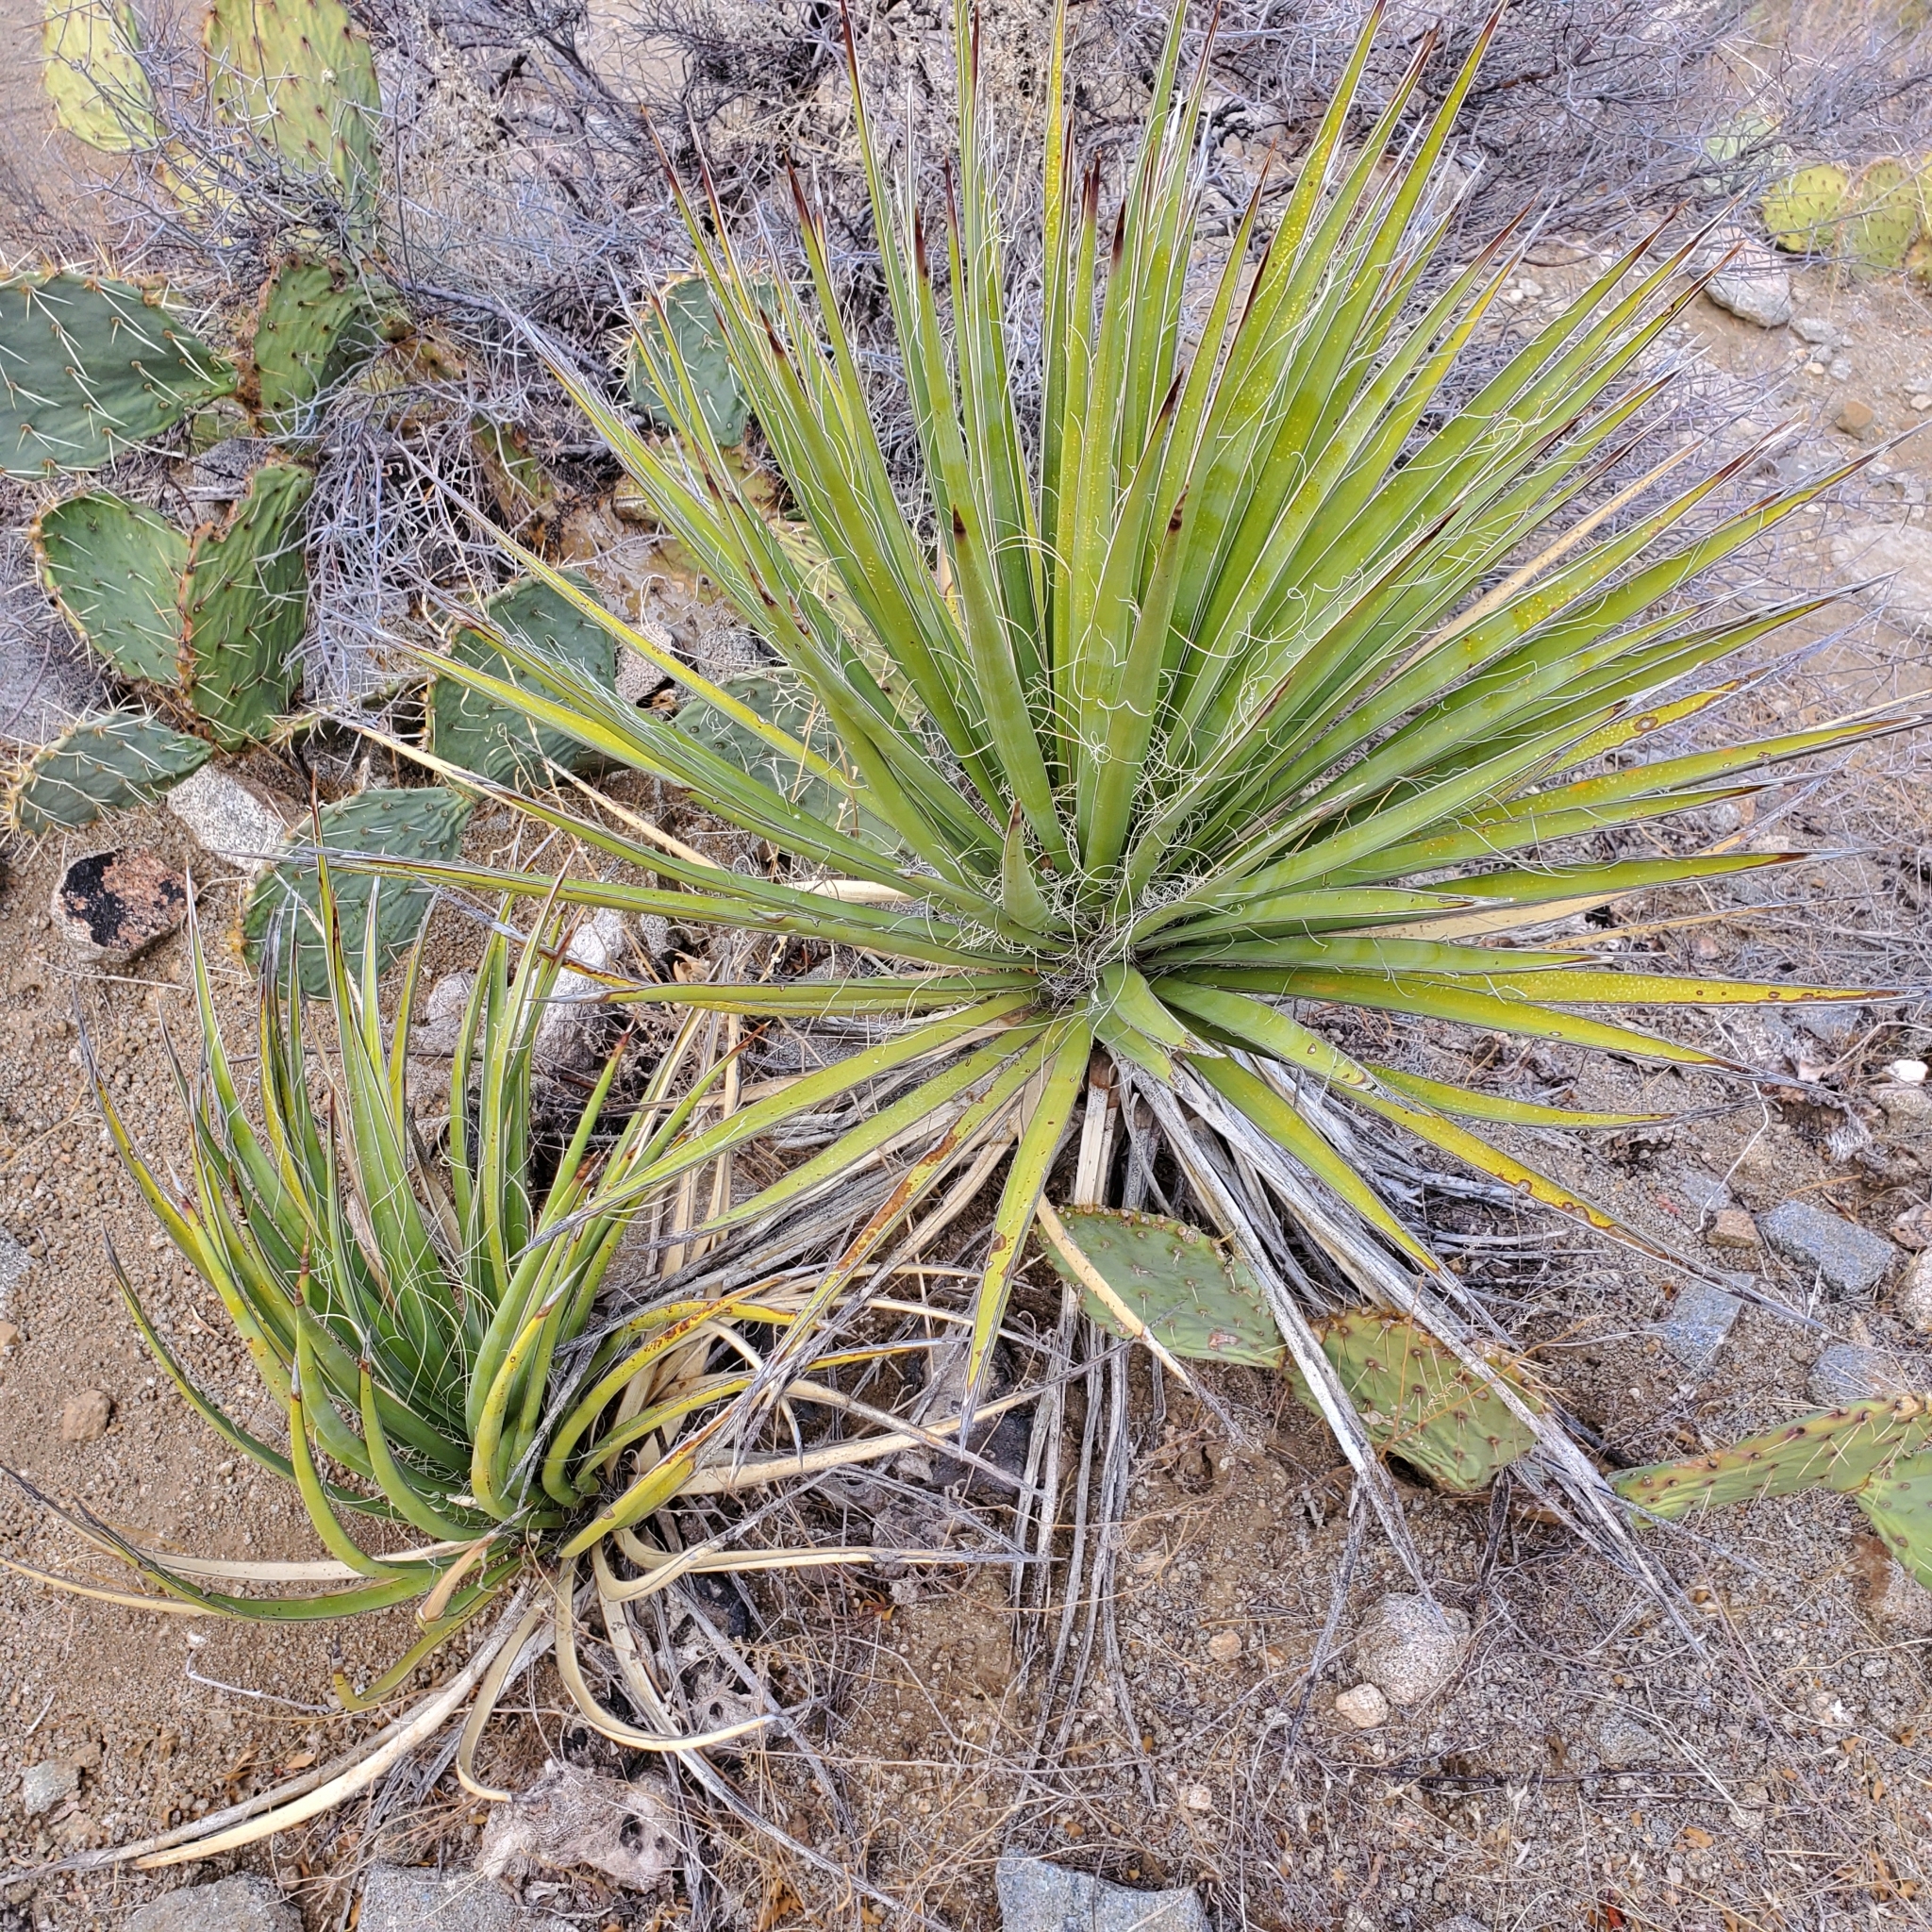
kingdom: Plantae
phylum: Tracheophyta
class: Liliopsida
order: Asparagales
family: Asparagaceae
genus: Dasylirion
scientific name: Dasylirion wheeleri
